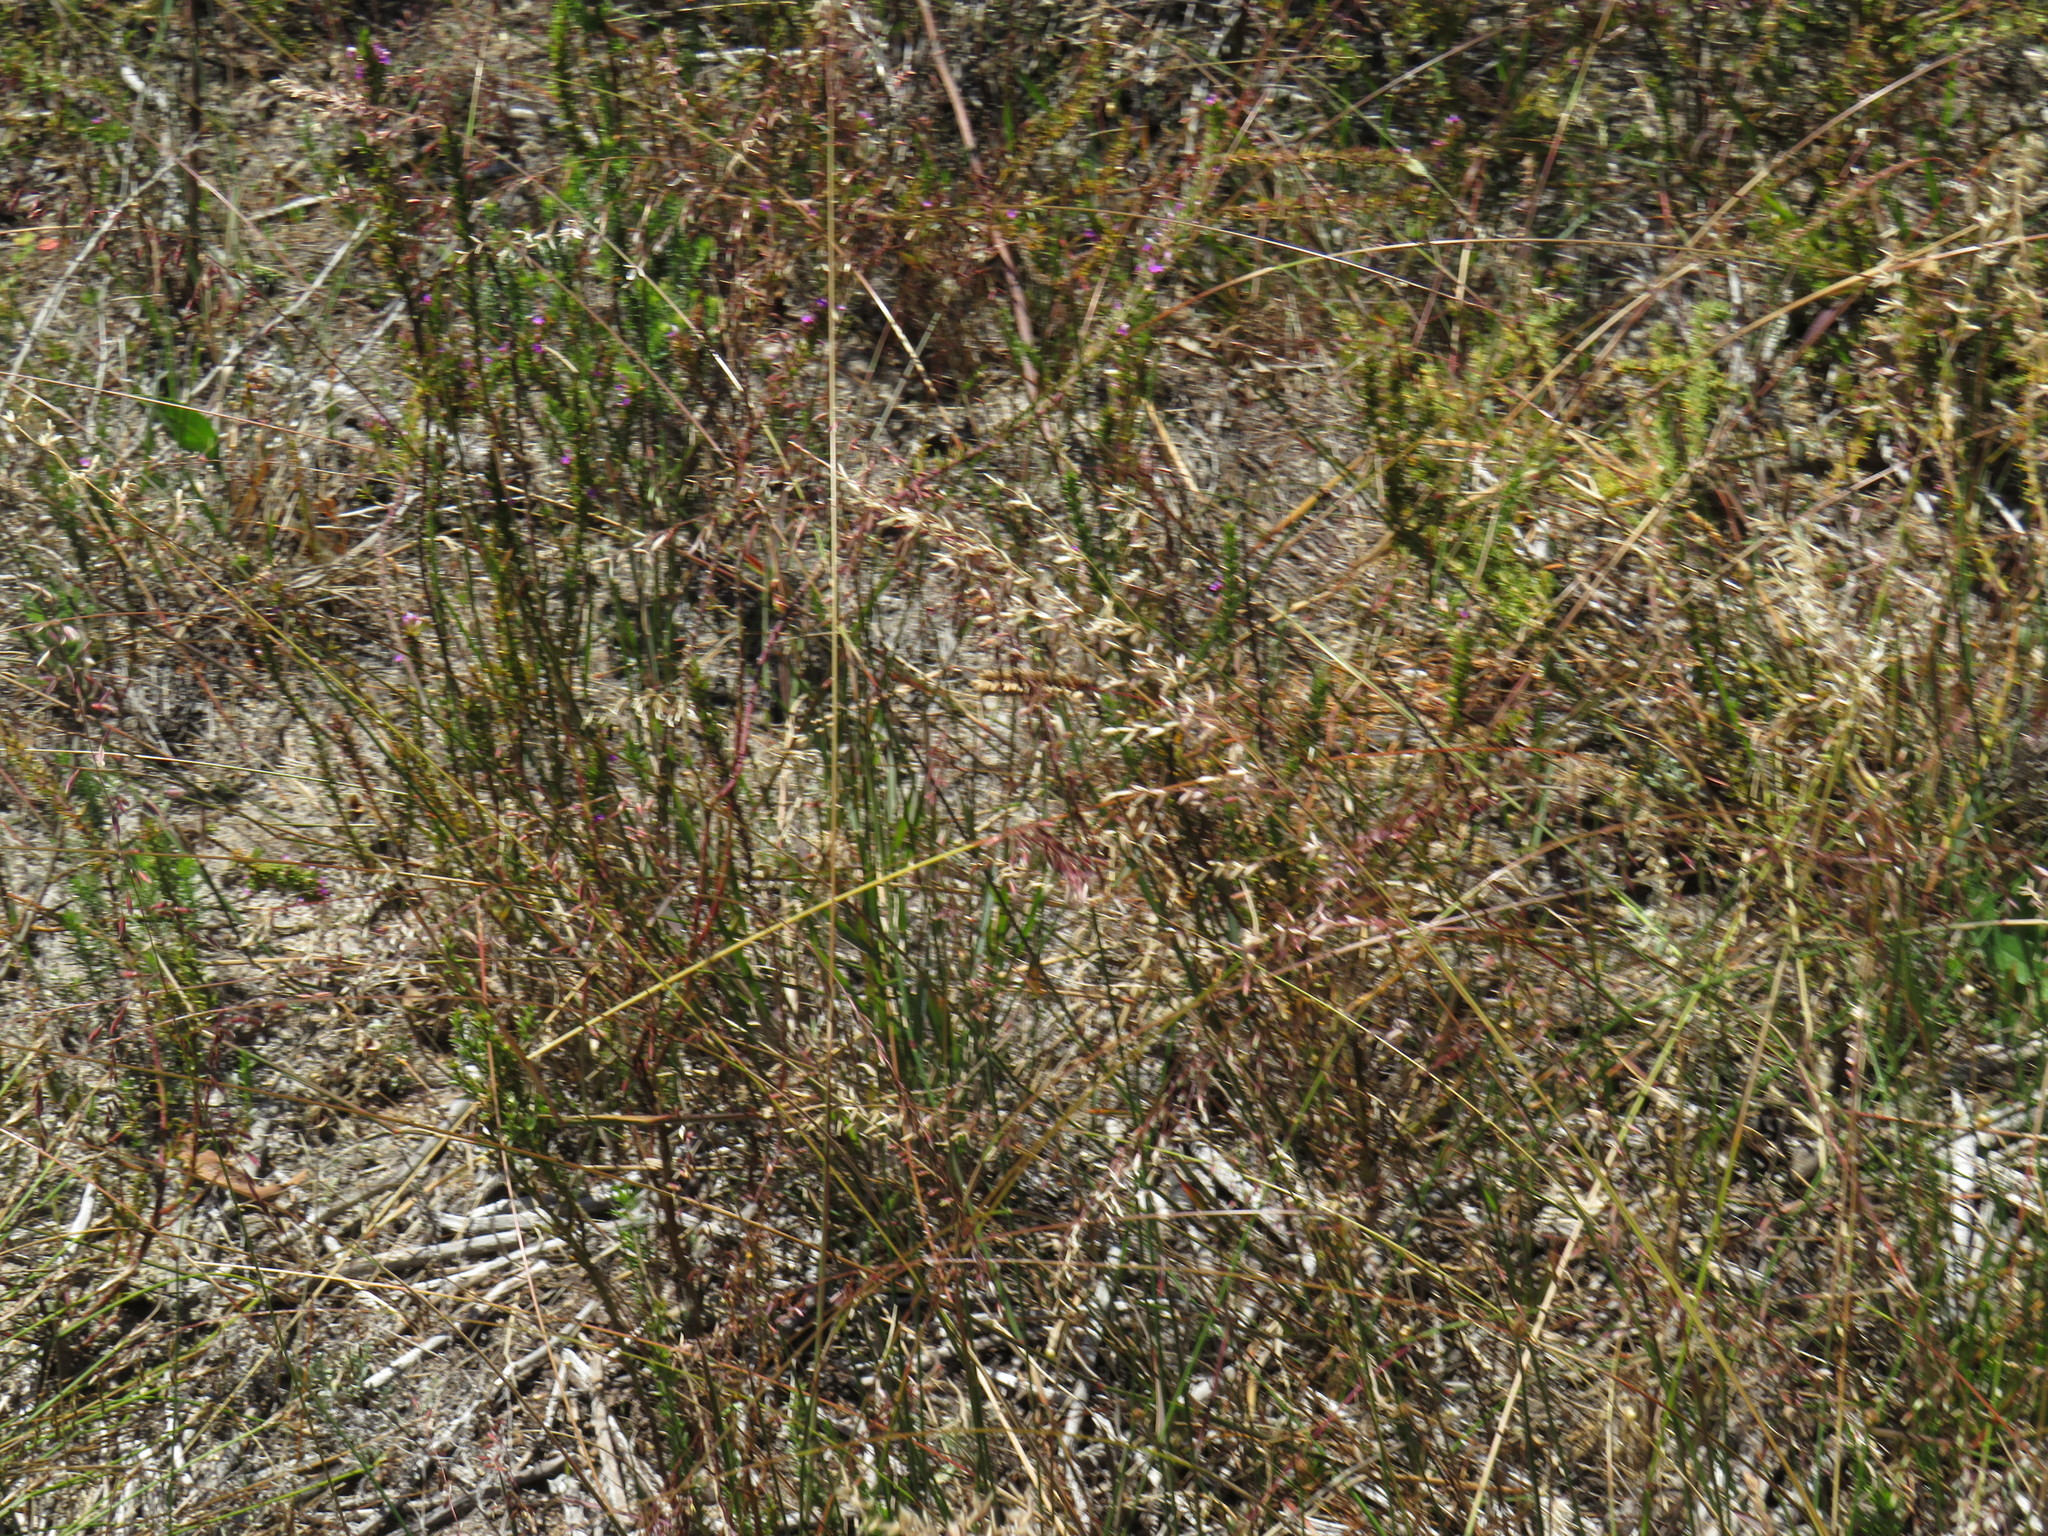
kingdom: Plantae
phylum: Tracheophyta
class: Liliopsida
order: Poales
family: Poaceae
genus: Ehrharta
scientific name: Ehrharta calycina
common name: Perennial veldtgrass
